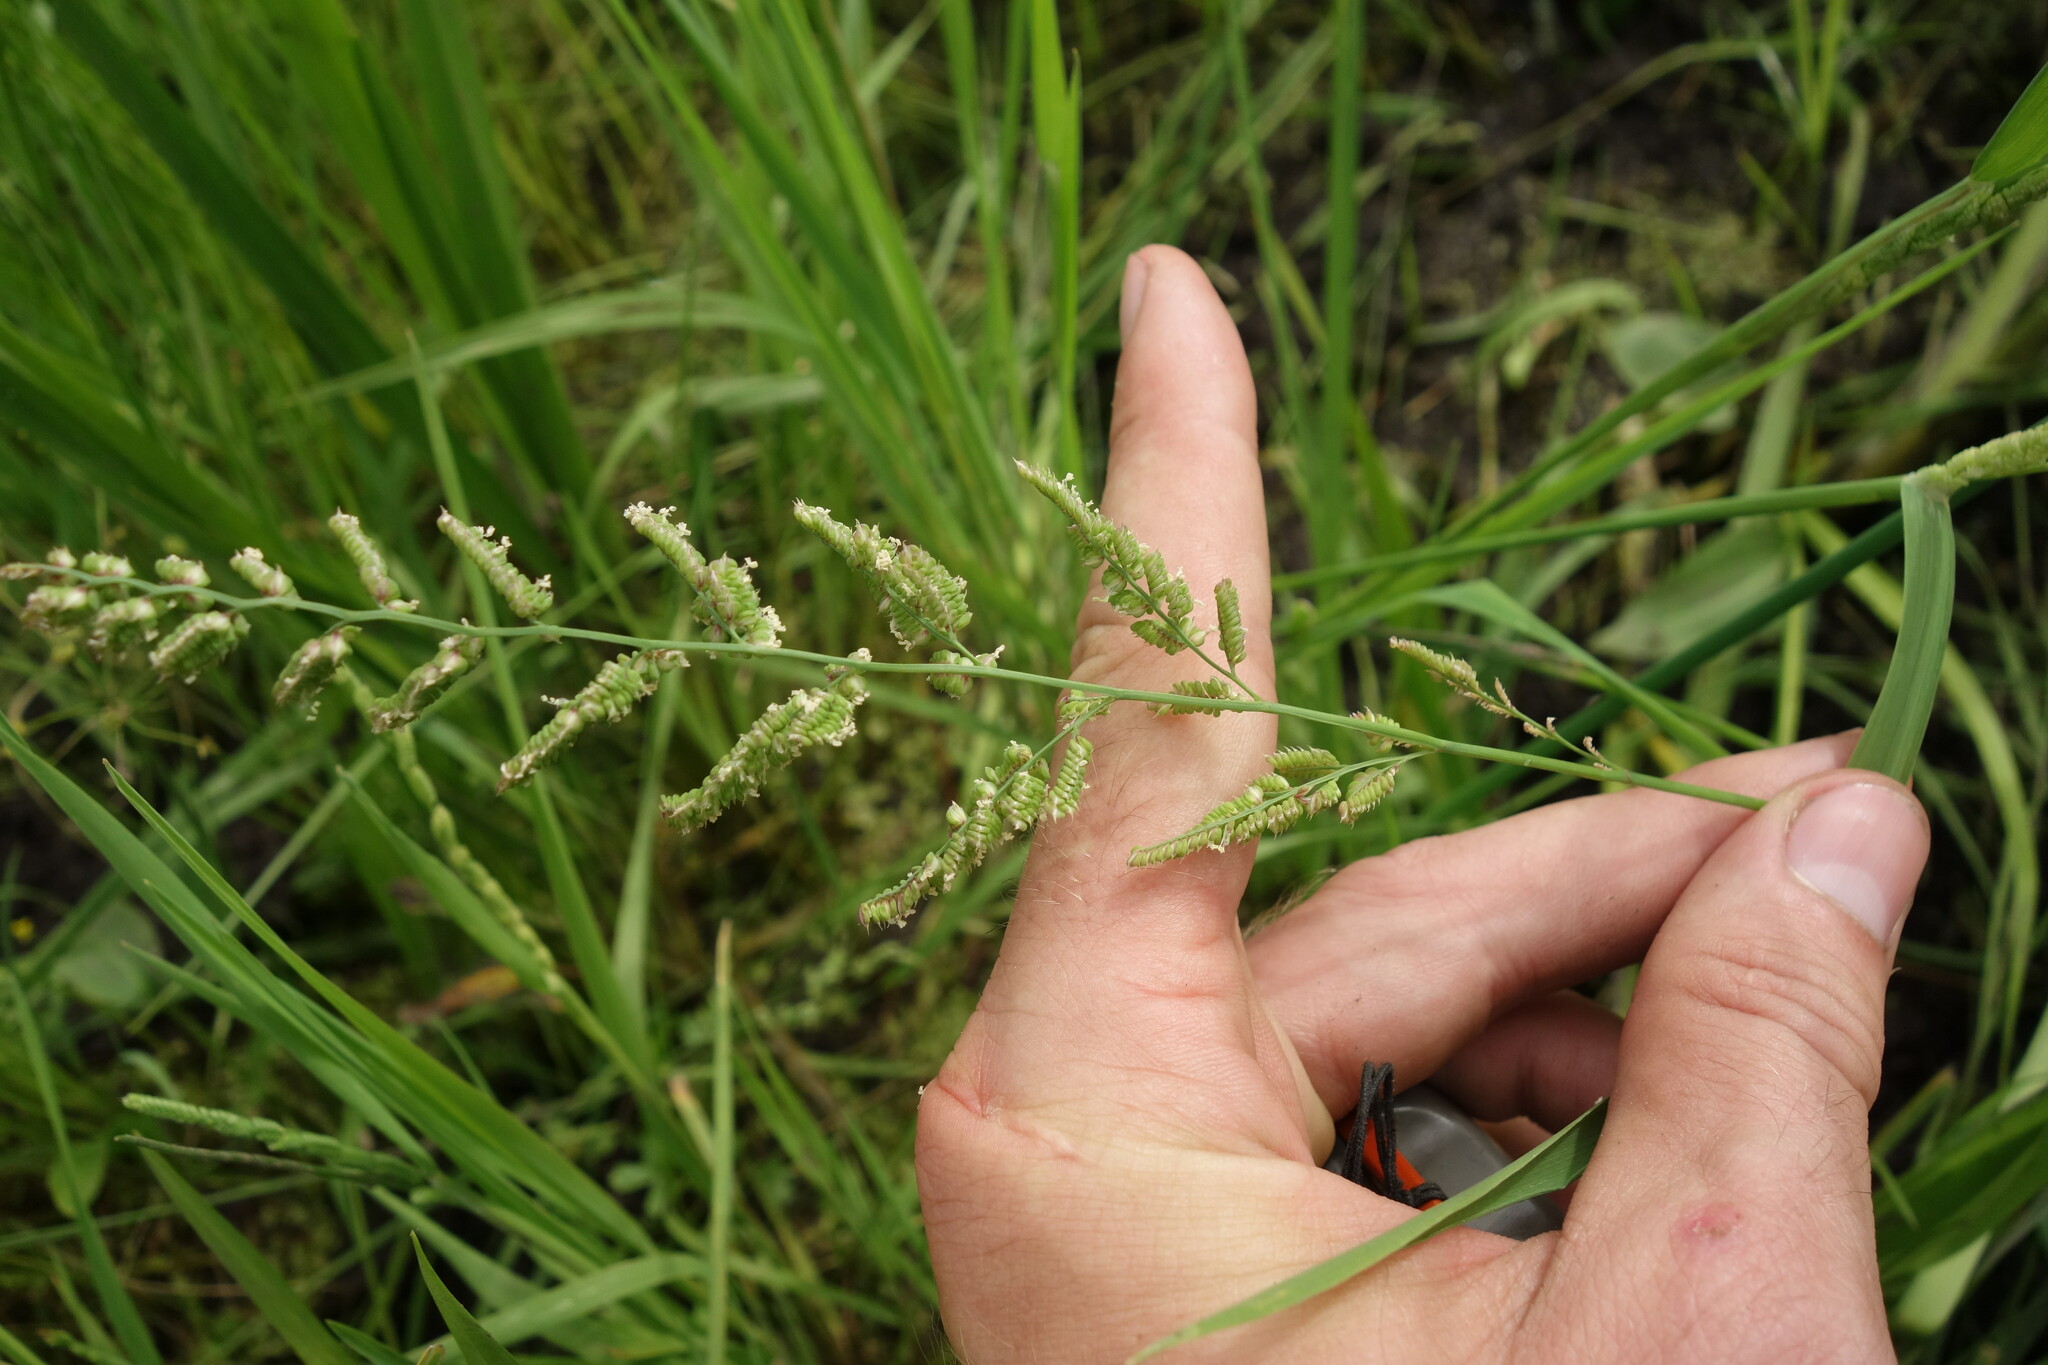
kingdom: Plantae
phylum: Tracheophyta
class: Liliopsida
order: Poales
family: Poaceae
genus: Beckmannia
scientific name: Beckmannia syzigachne
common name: American slough-grass
